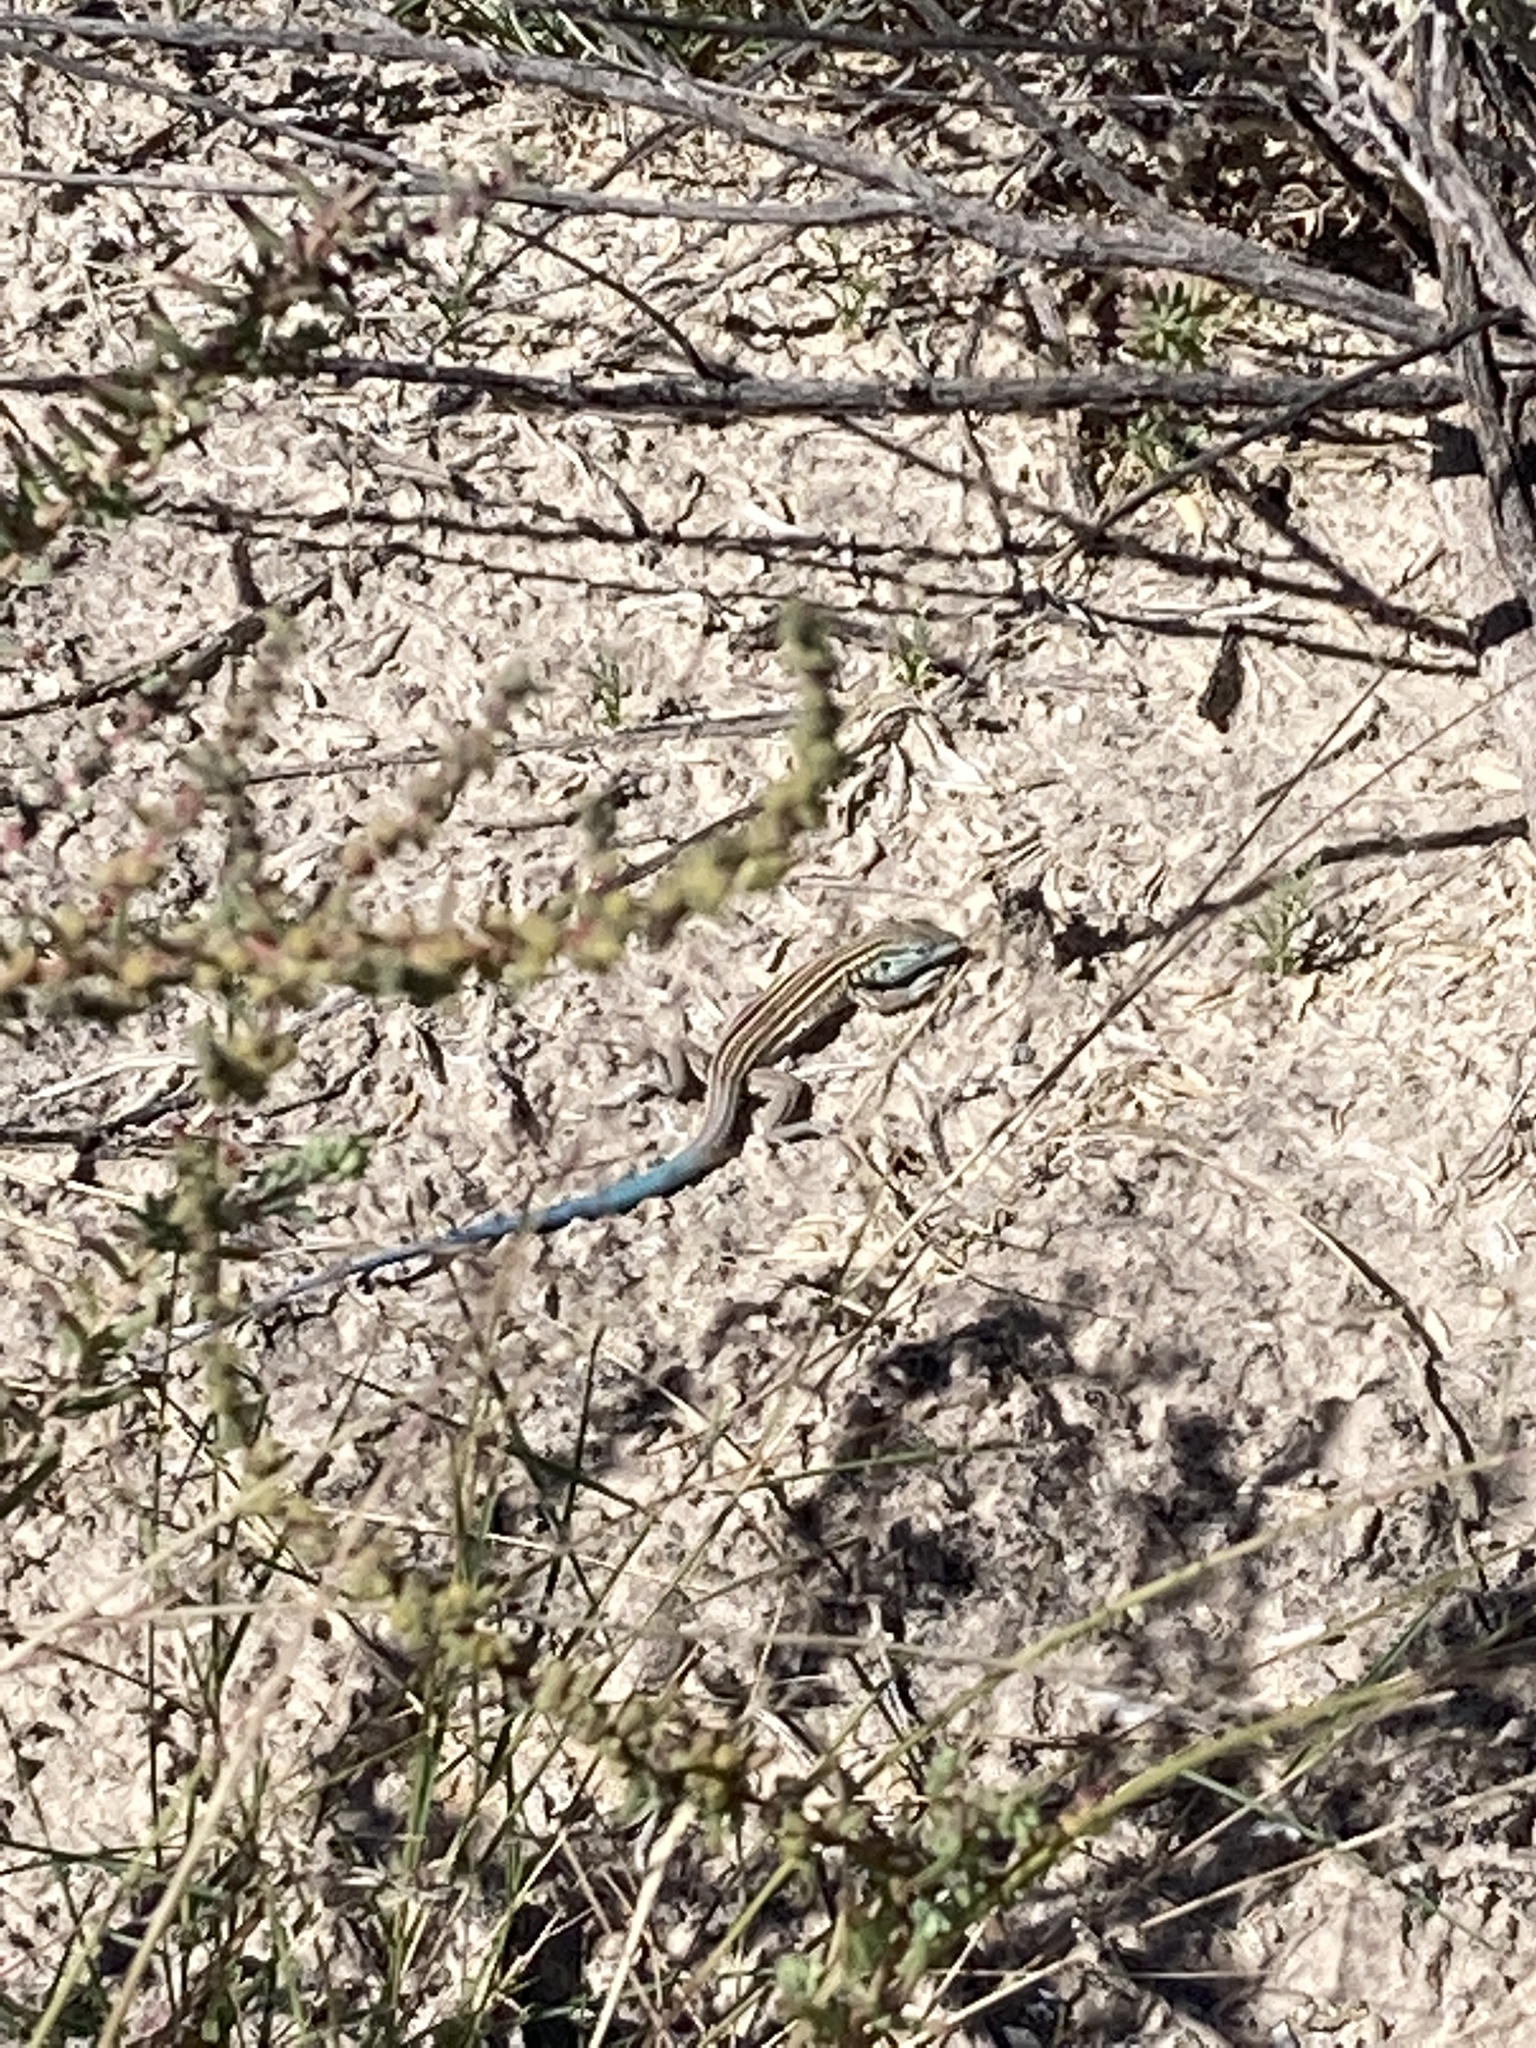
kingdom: Animalia
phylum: Chordata
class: Squamata
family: Teiidae
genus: Aspidoscelis
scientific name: Aspidoscelis inornatus
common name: Little striped whiptail
